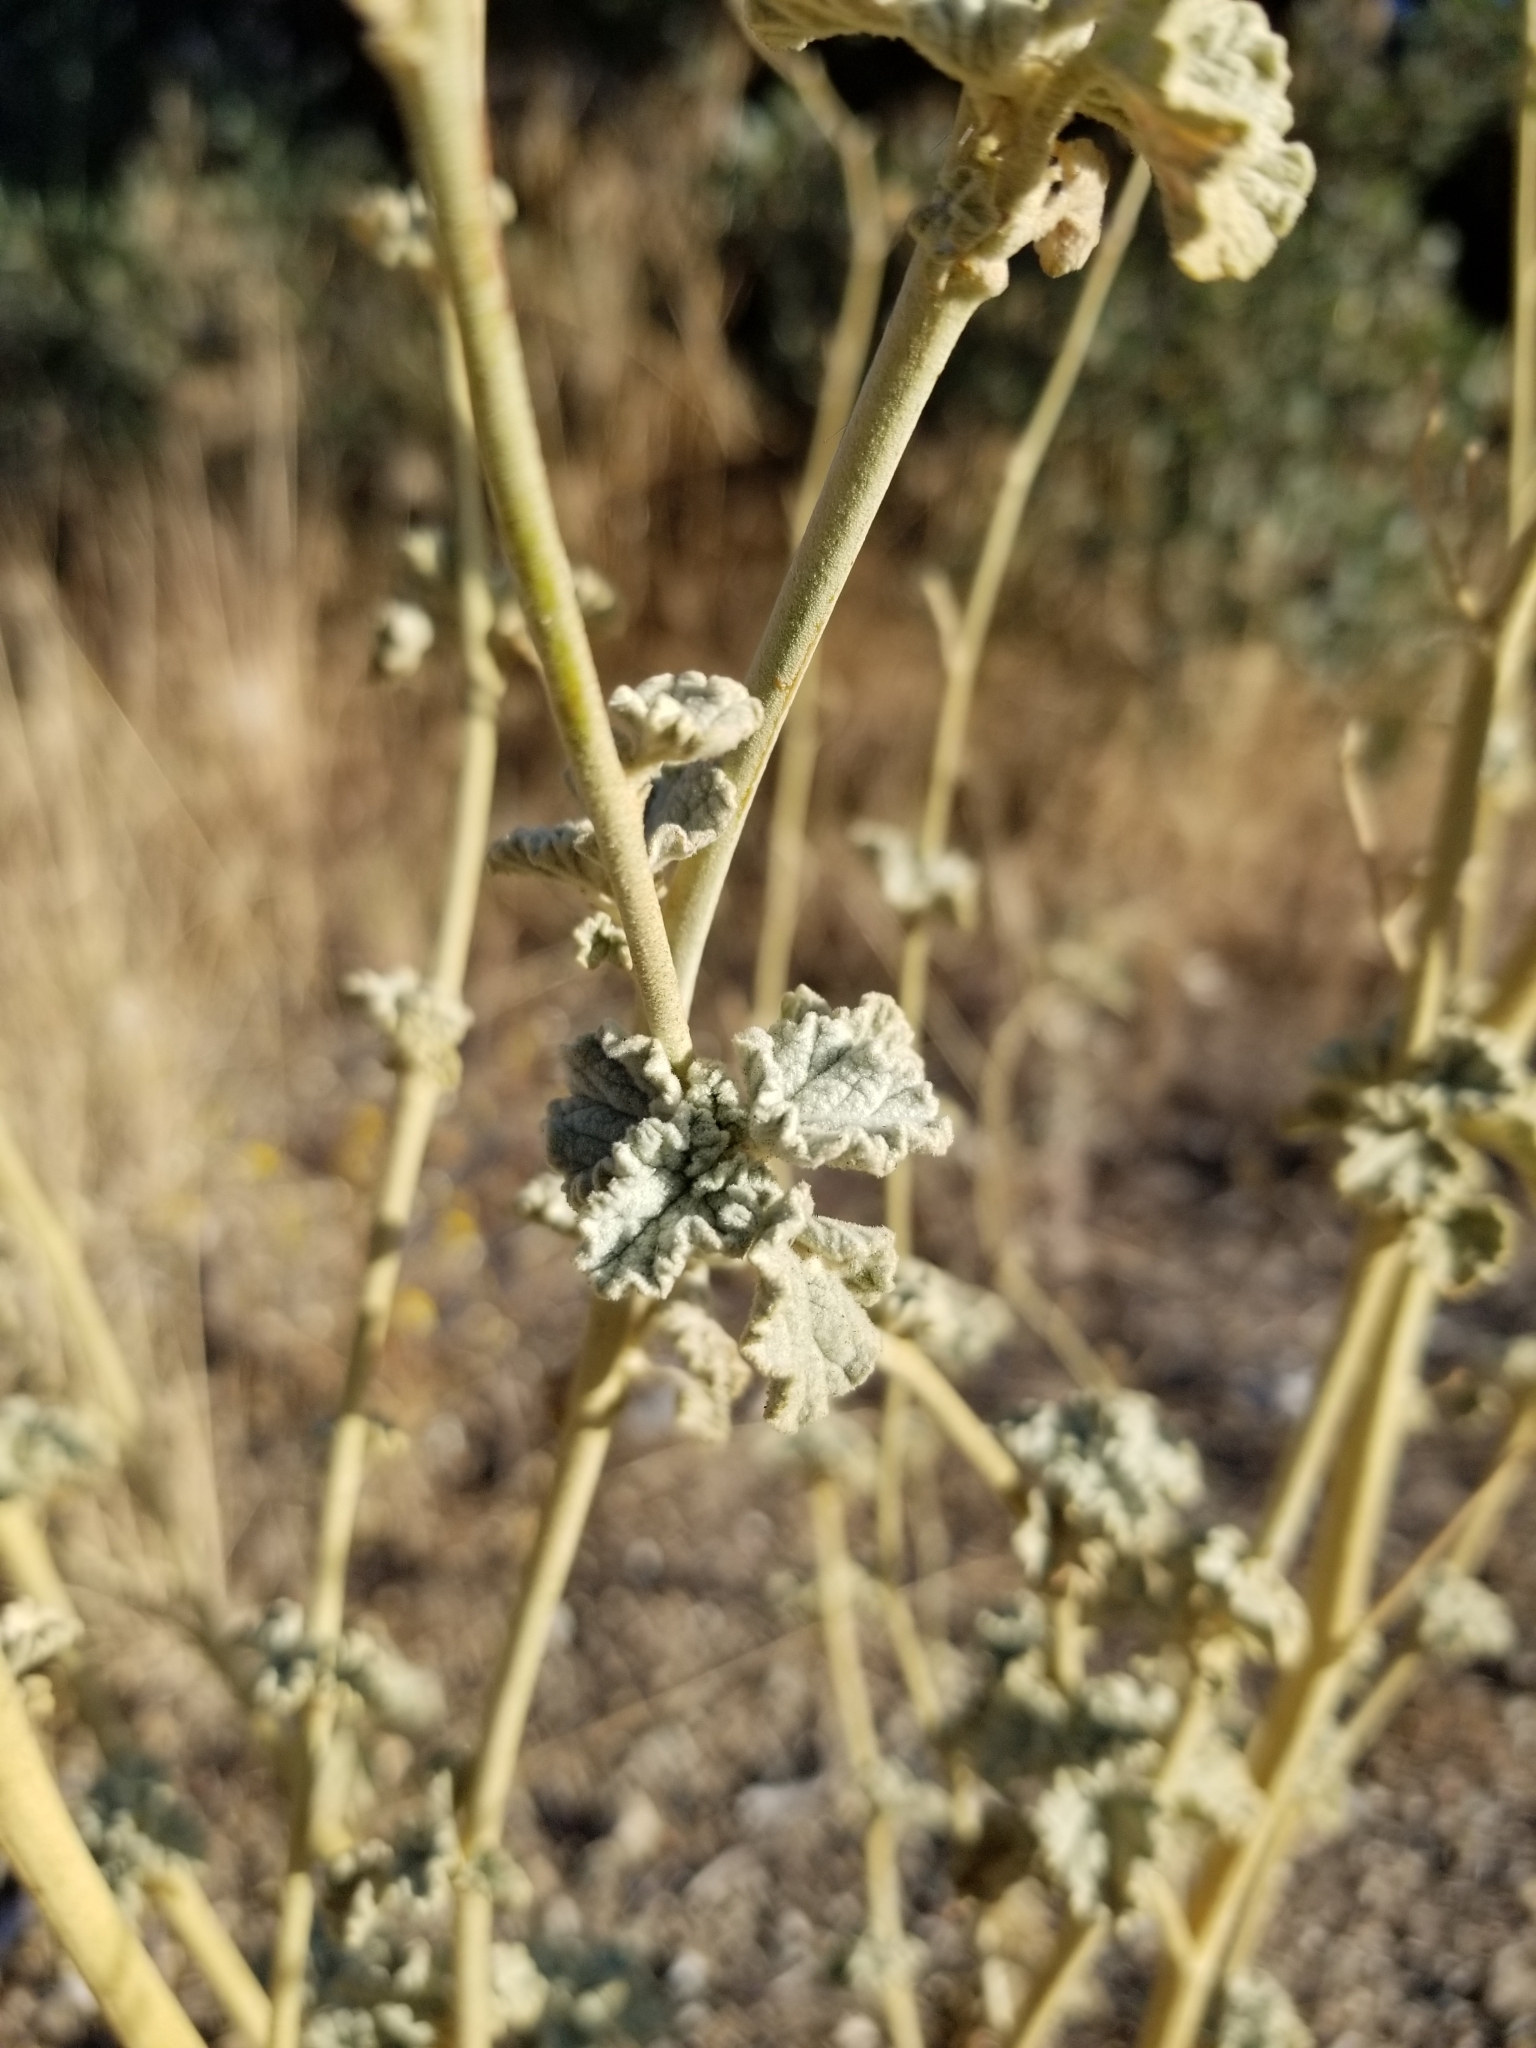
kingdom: Plantae
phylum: Tracheophyta
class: Magnoliopsida
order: Malvales
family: Malvaceae
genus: Sphaeralcea
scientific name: Sphaeralcea ambigua
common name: Apricot globe-mallow
